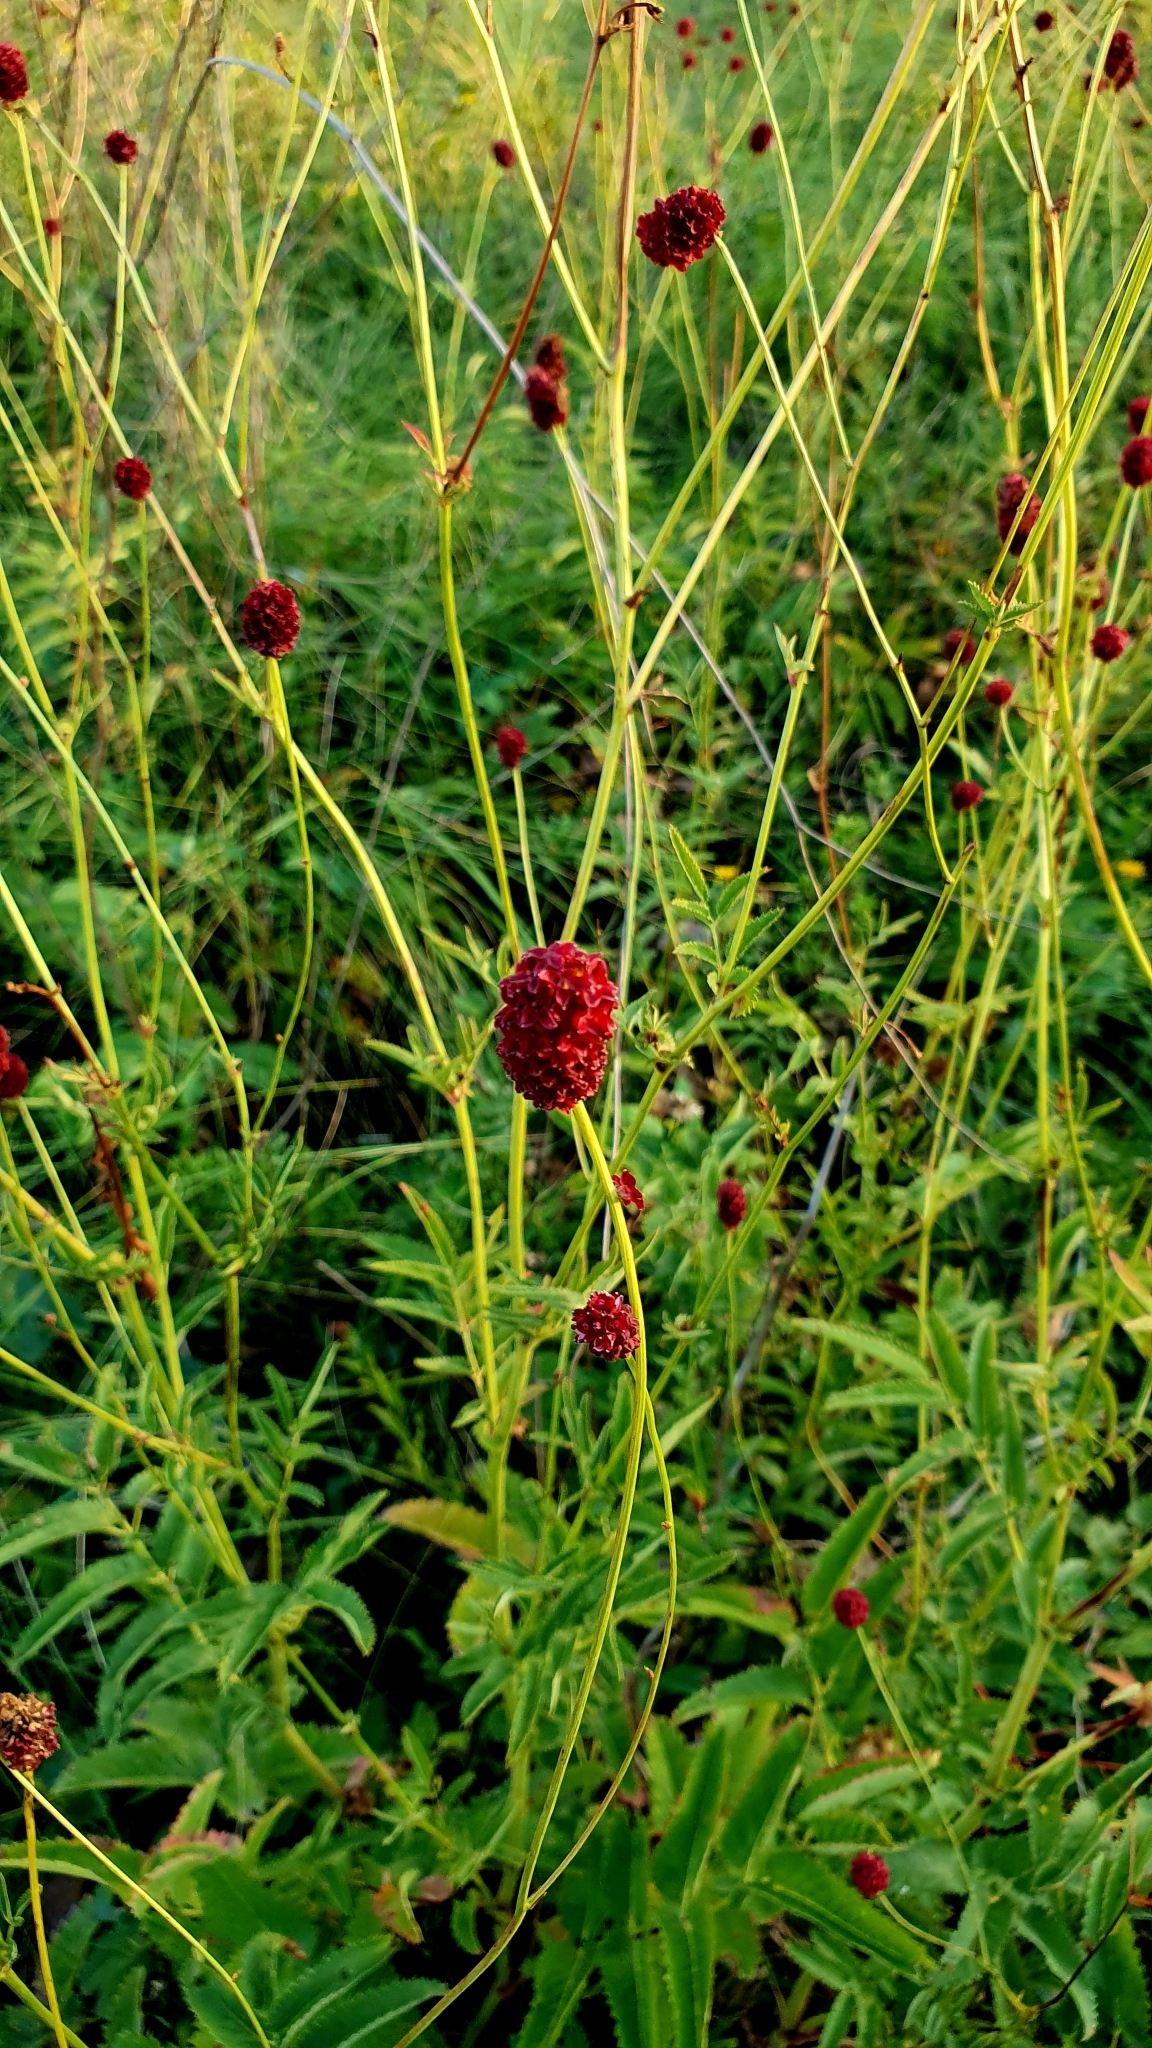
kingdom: Plantae
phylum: Tracheophyta
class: Magnoliopsida
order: Rosales
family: Rosaceae
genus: Sanguisorba
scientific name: Sanguisorba officinalis
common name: Great burnet
